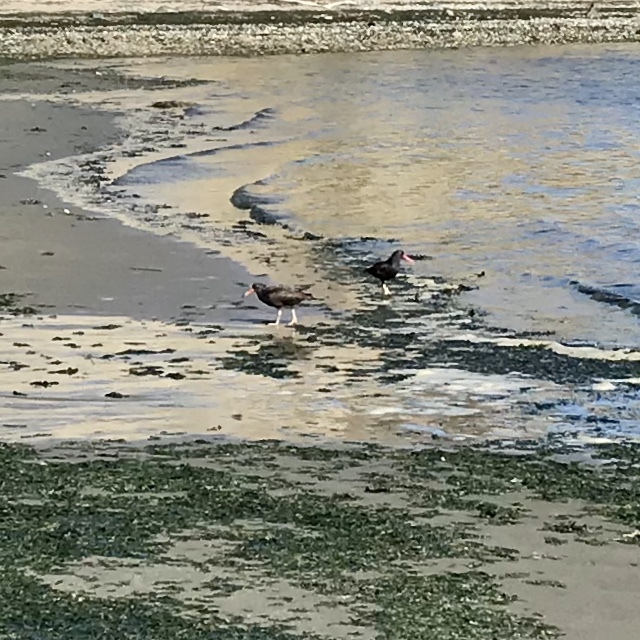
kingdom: Animalia
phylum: Chordata
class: Aves
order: Charadriiformes
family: Haematopodidae
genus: Haematopus
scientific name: Haematopus bachmani
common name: Black oystercatcher
